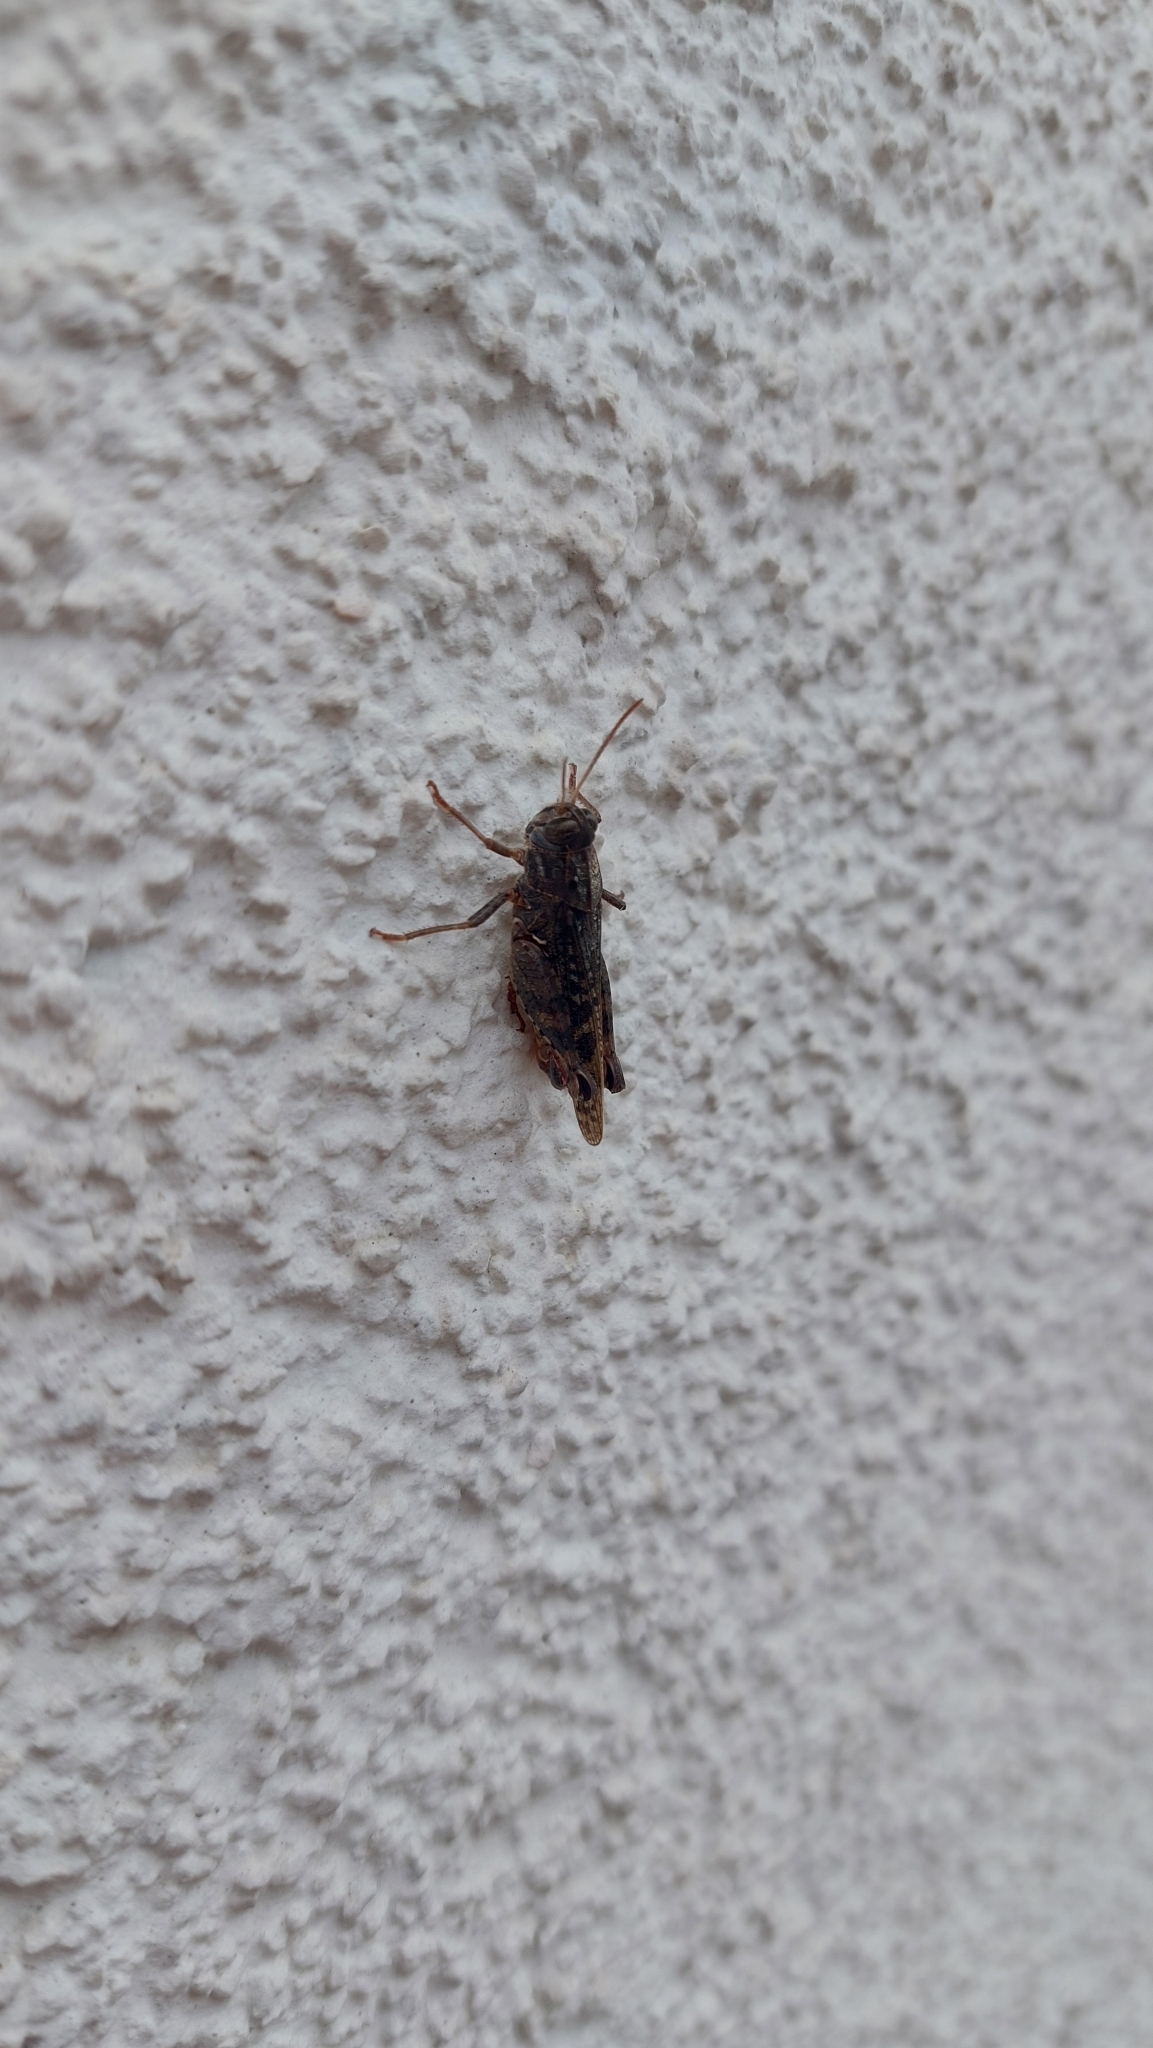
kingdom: Animalia
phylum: Arthropoda
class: Insecta
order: Orthoptera
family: Acrididae
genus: Calliptamus
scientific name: Calliptamus italicus
